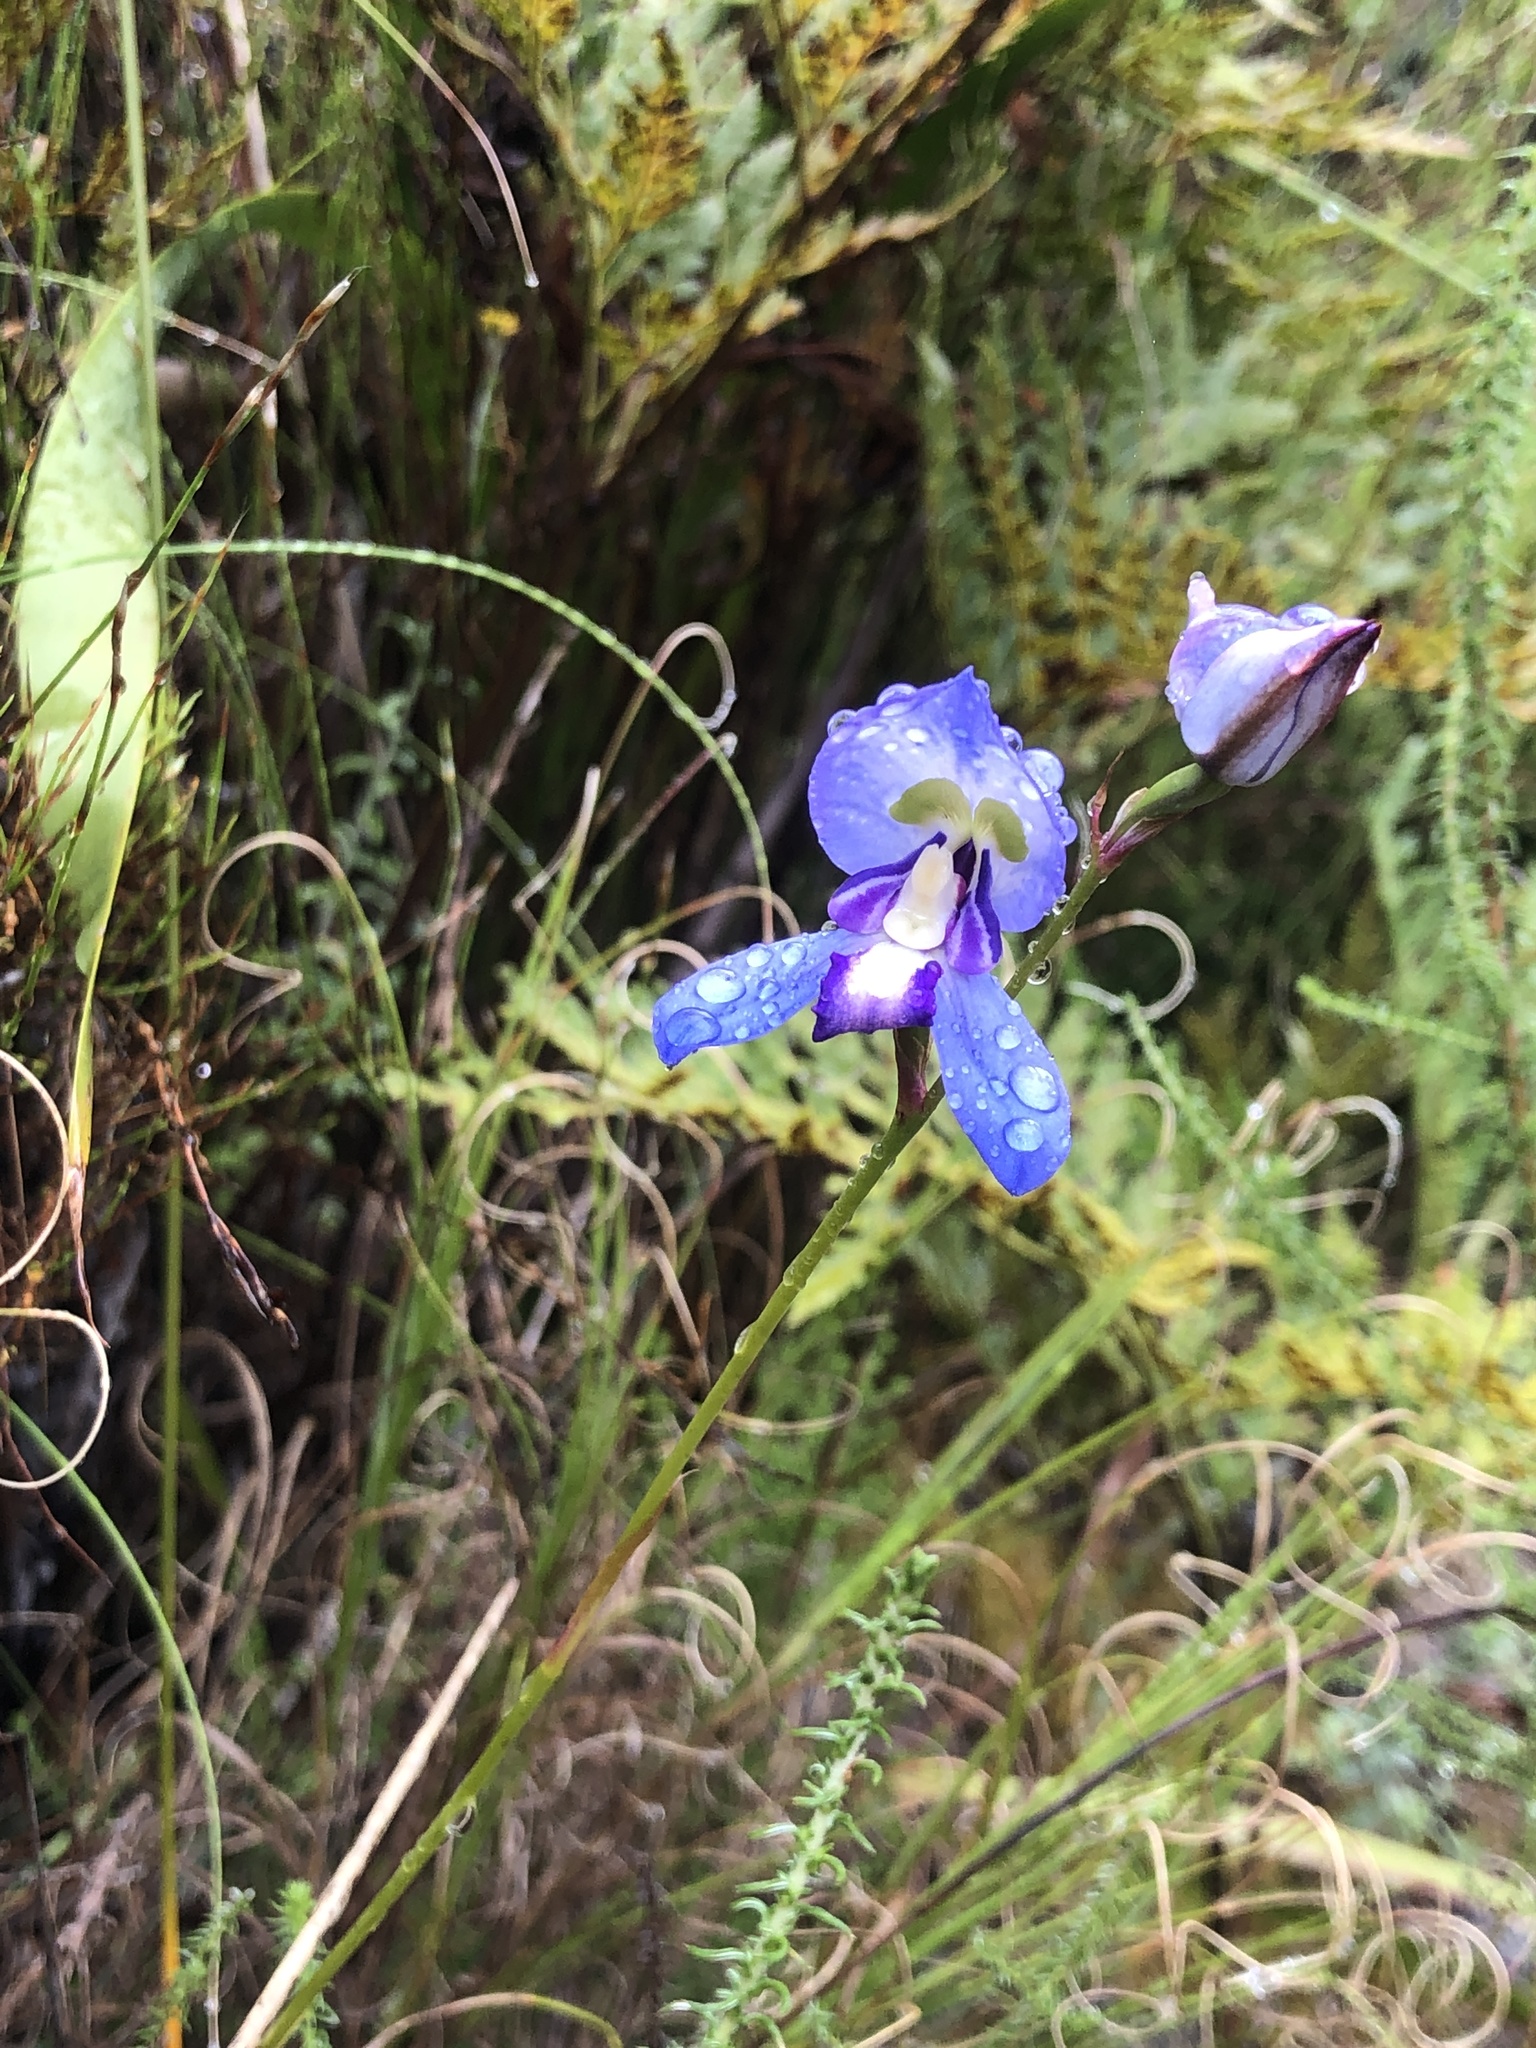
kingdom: Plantae
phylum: Tracheophyta
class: Liliopsida
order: Asparagales
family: Orchidaceae
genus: Disa
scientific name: Disa graminifolia
